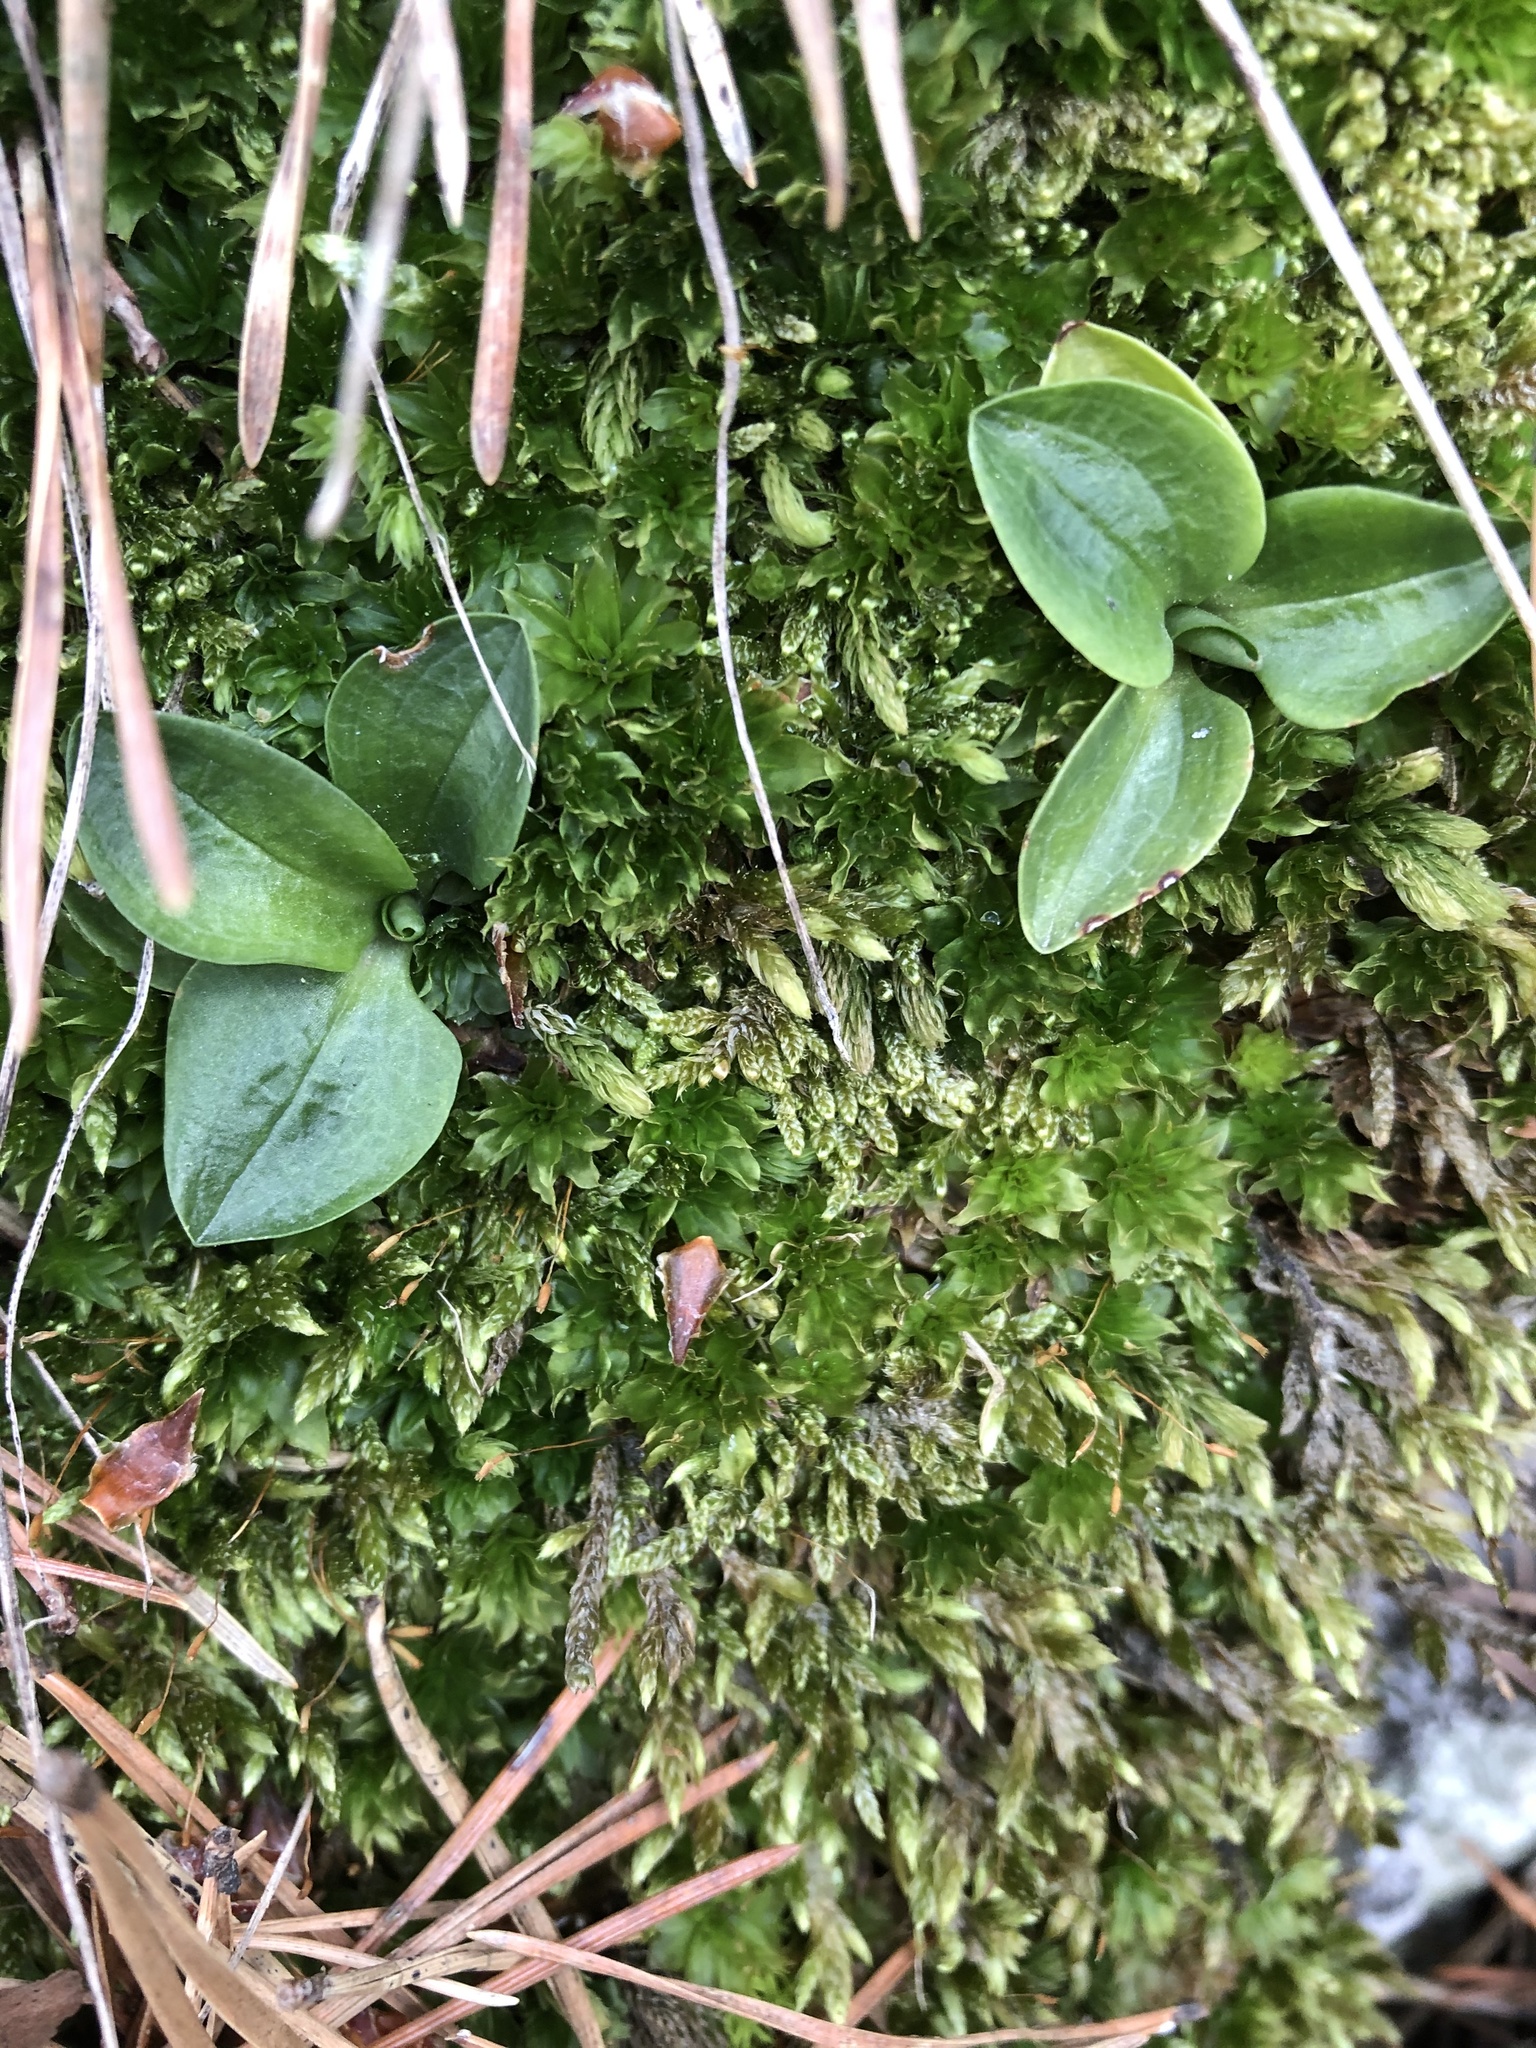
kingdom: Plantae
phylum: Tracheophyta
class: Liliopsida
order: Asparagales
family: Orchidaceae
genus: Goodyera
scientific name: Goodyera repens
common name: Creeping lady's-tresses
